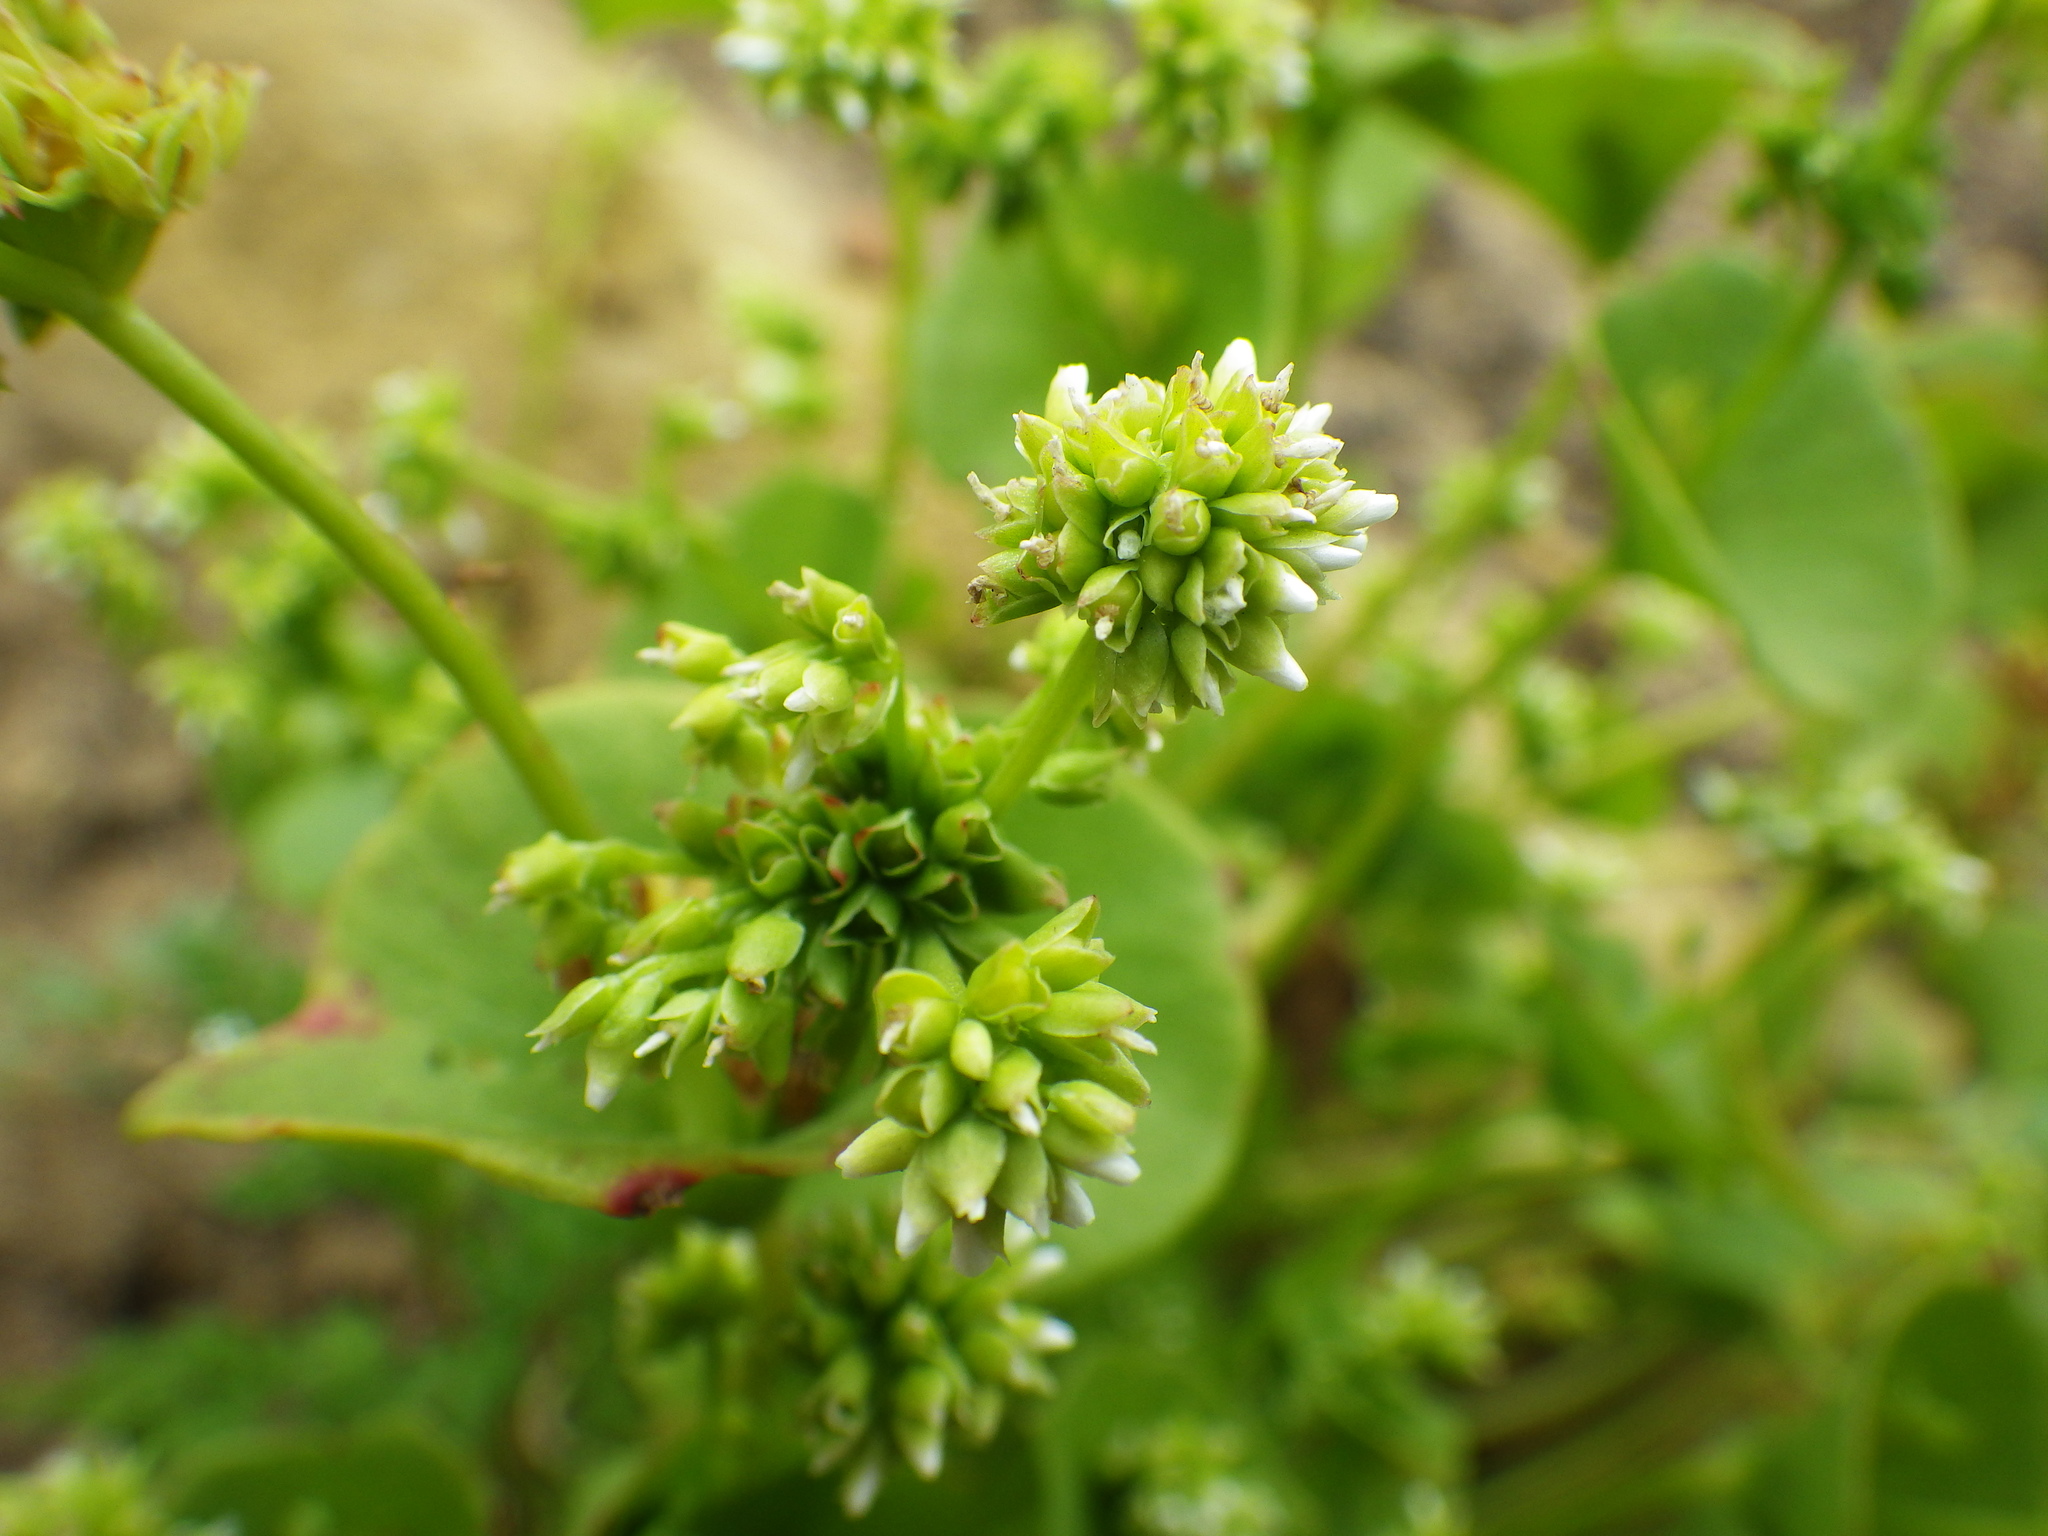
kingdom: Plantae
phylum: Tracheophyta
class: Magnoliopsida
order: Caryophyllales
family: Montiaceae
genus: Claytonia
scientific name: Claytonia perfoliata
